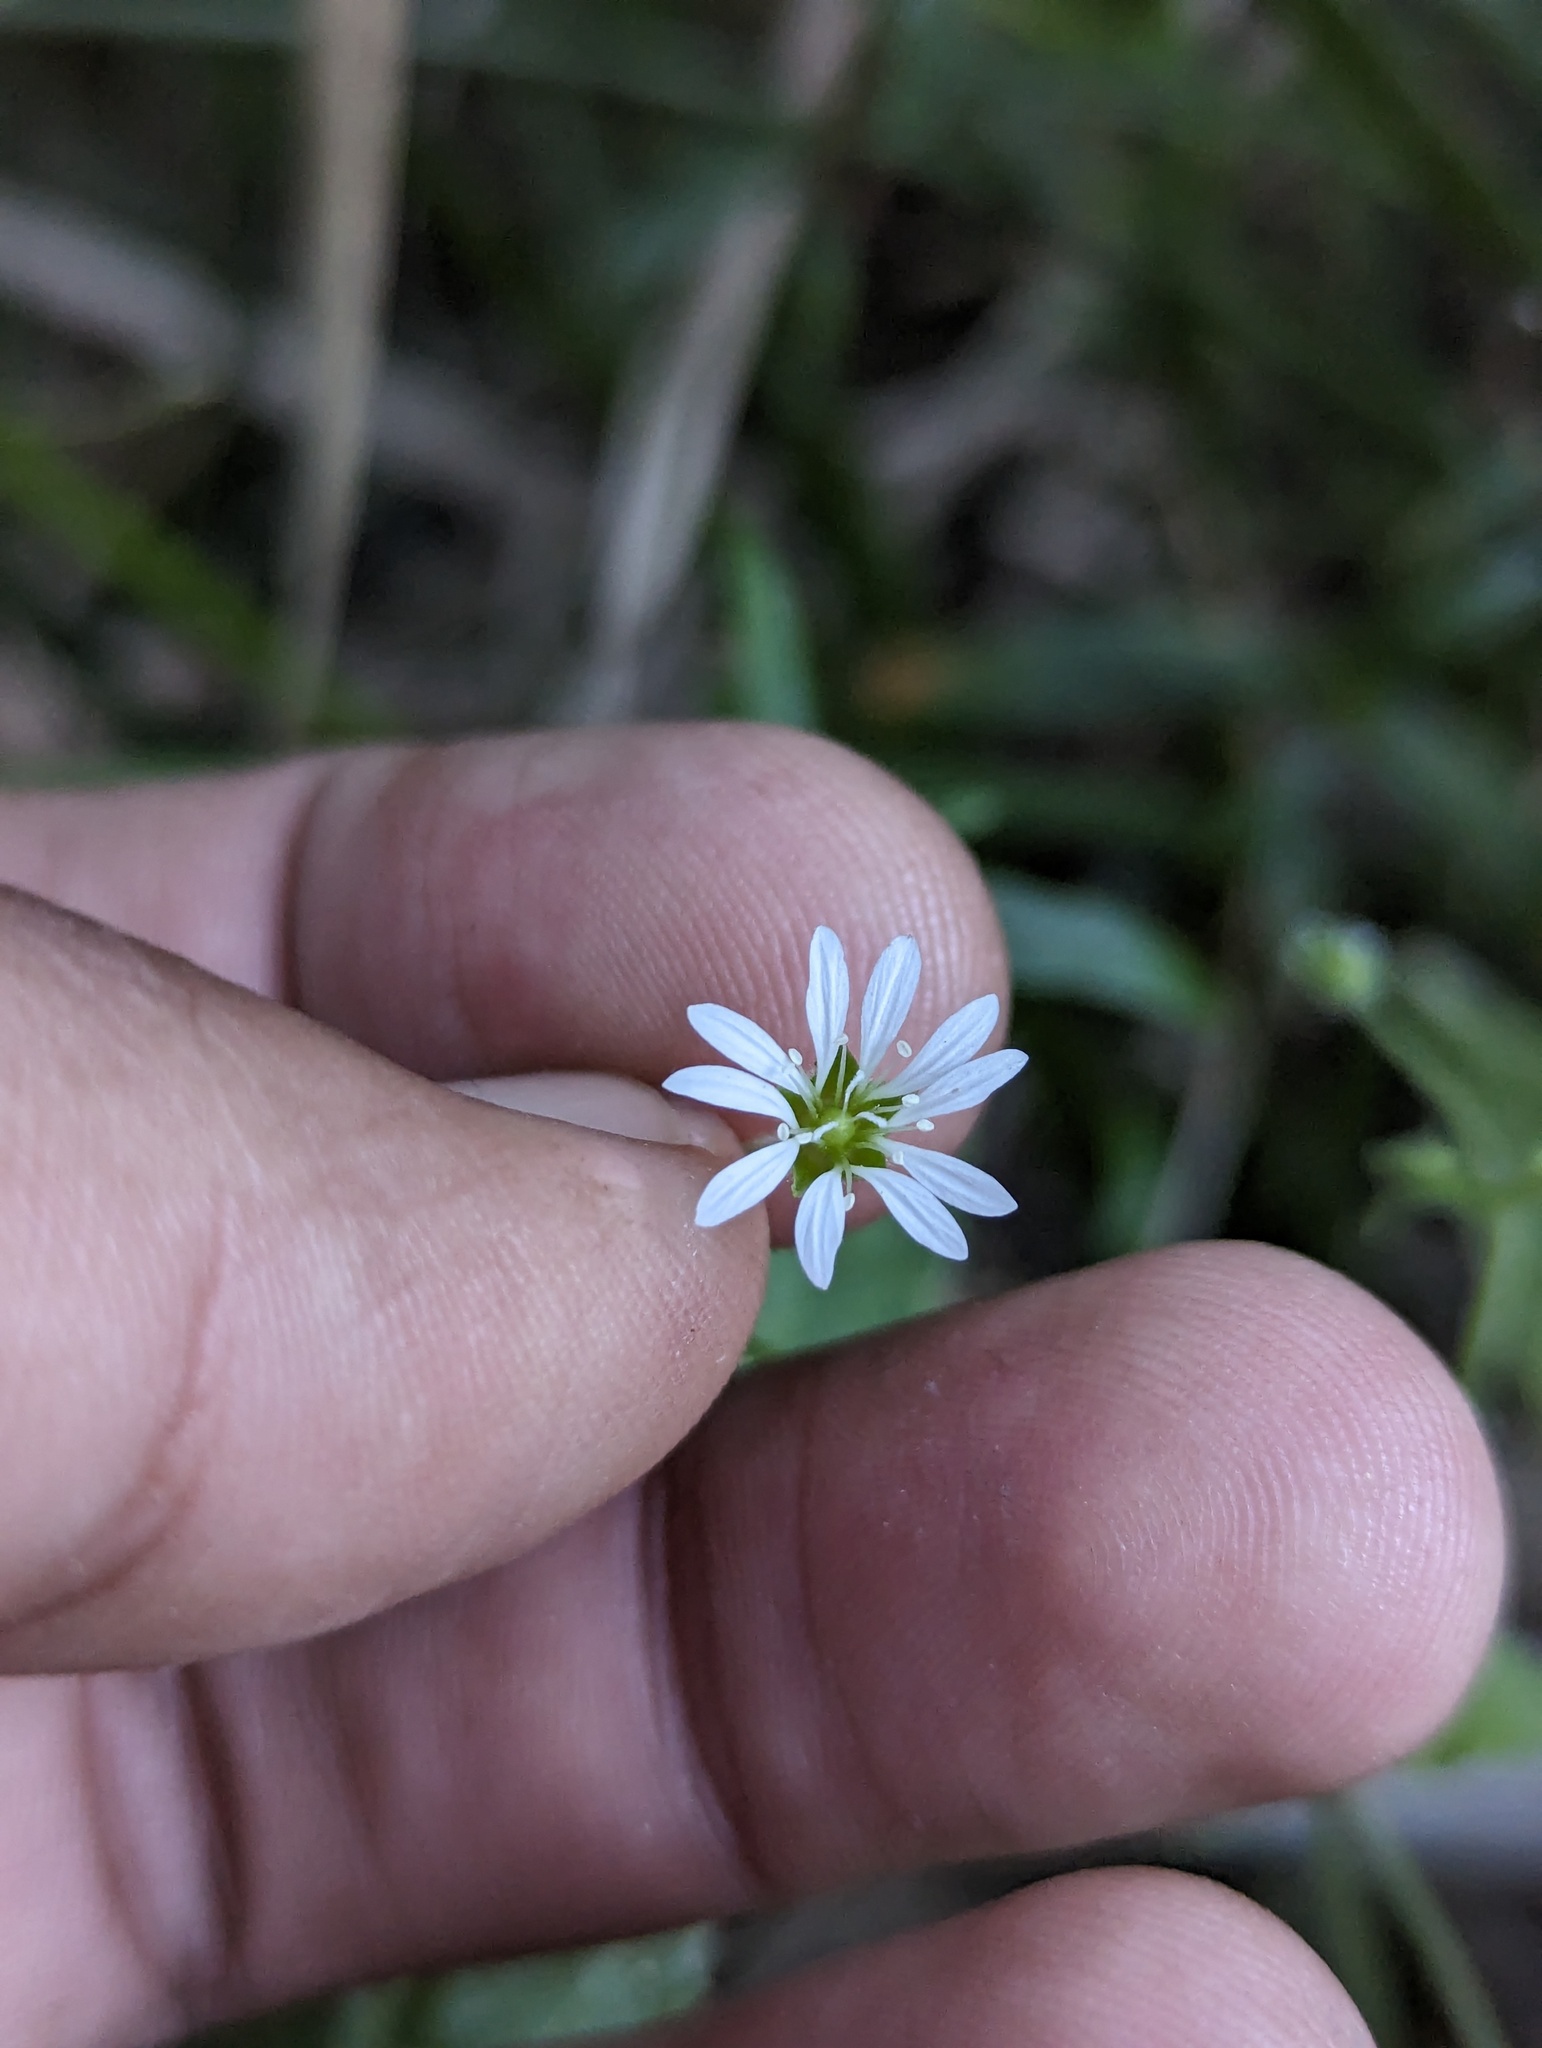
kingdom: Plantae
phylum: Tracheophyta
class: Magnoliopsida
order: Caryophyllales
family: Caryophyllaceae
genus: Stellaria
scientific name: Stellaria cuspidata
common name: Mexican chickweed
